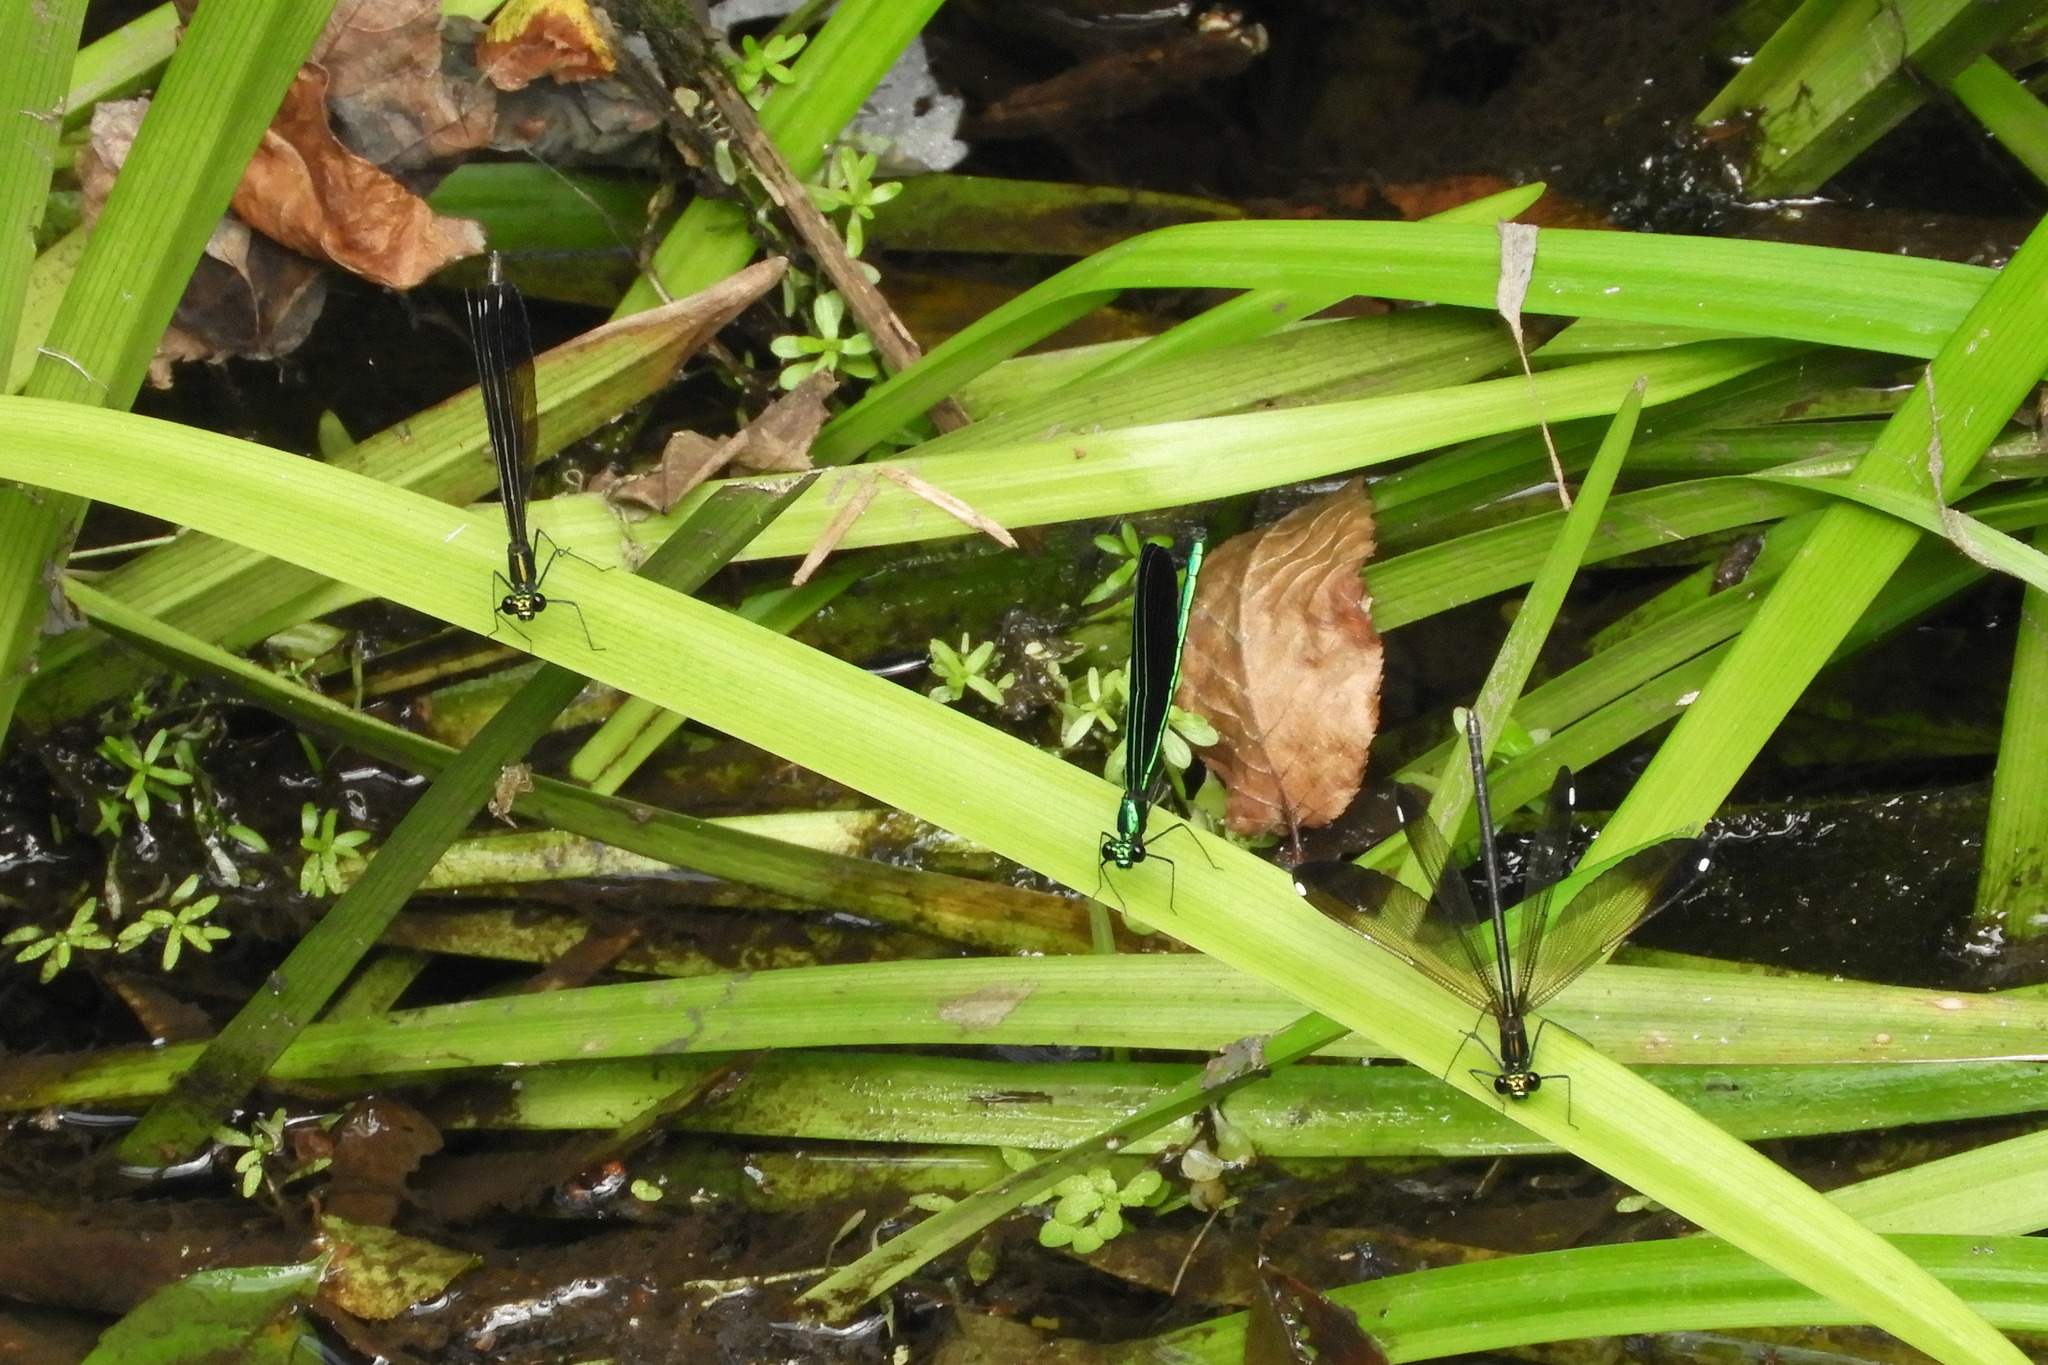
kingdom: Animalia
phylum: Arthropoda
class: Insecta
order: Odonata
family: Calopterygidae
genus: Calopteryx
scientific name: Calopteryx maculata
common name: Ebony jewelwing
